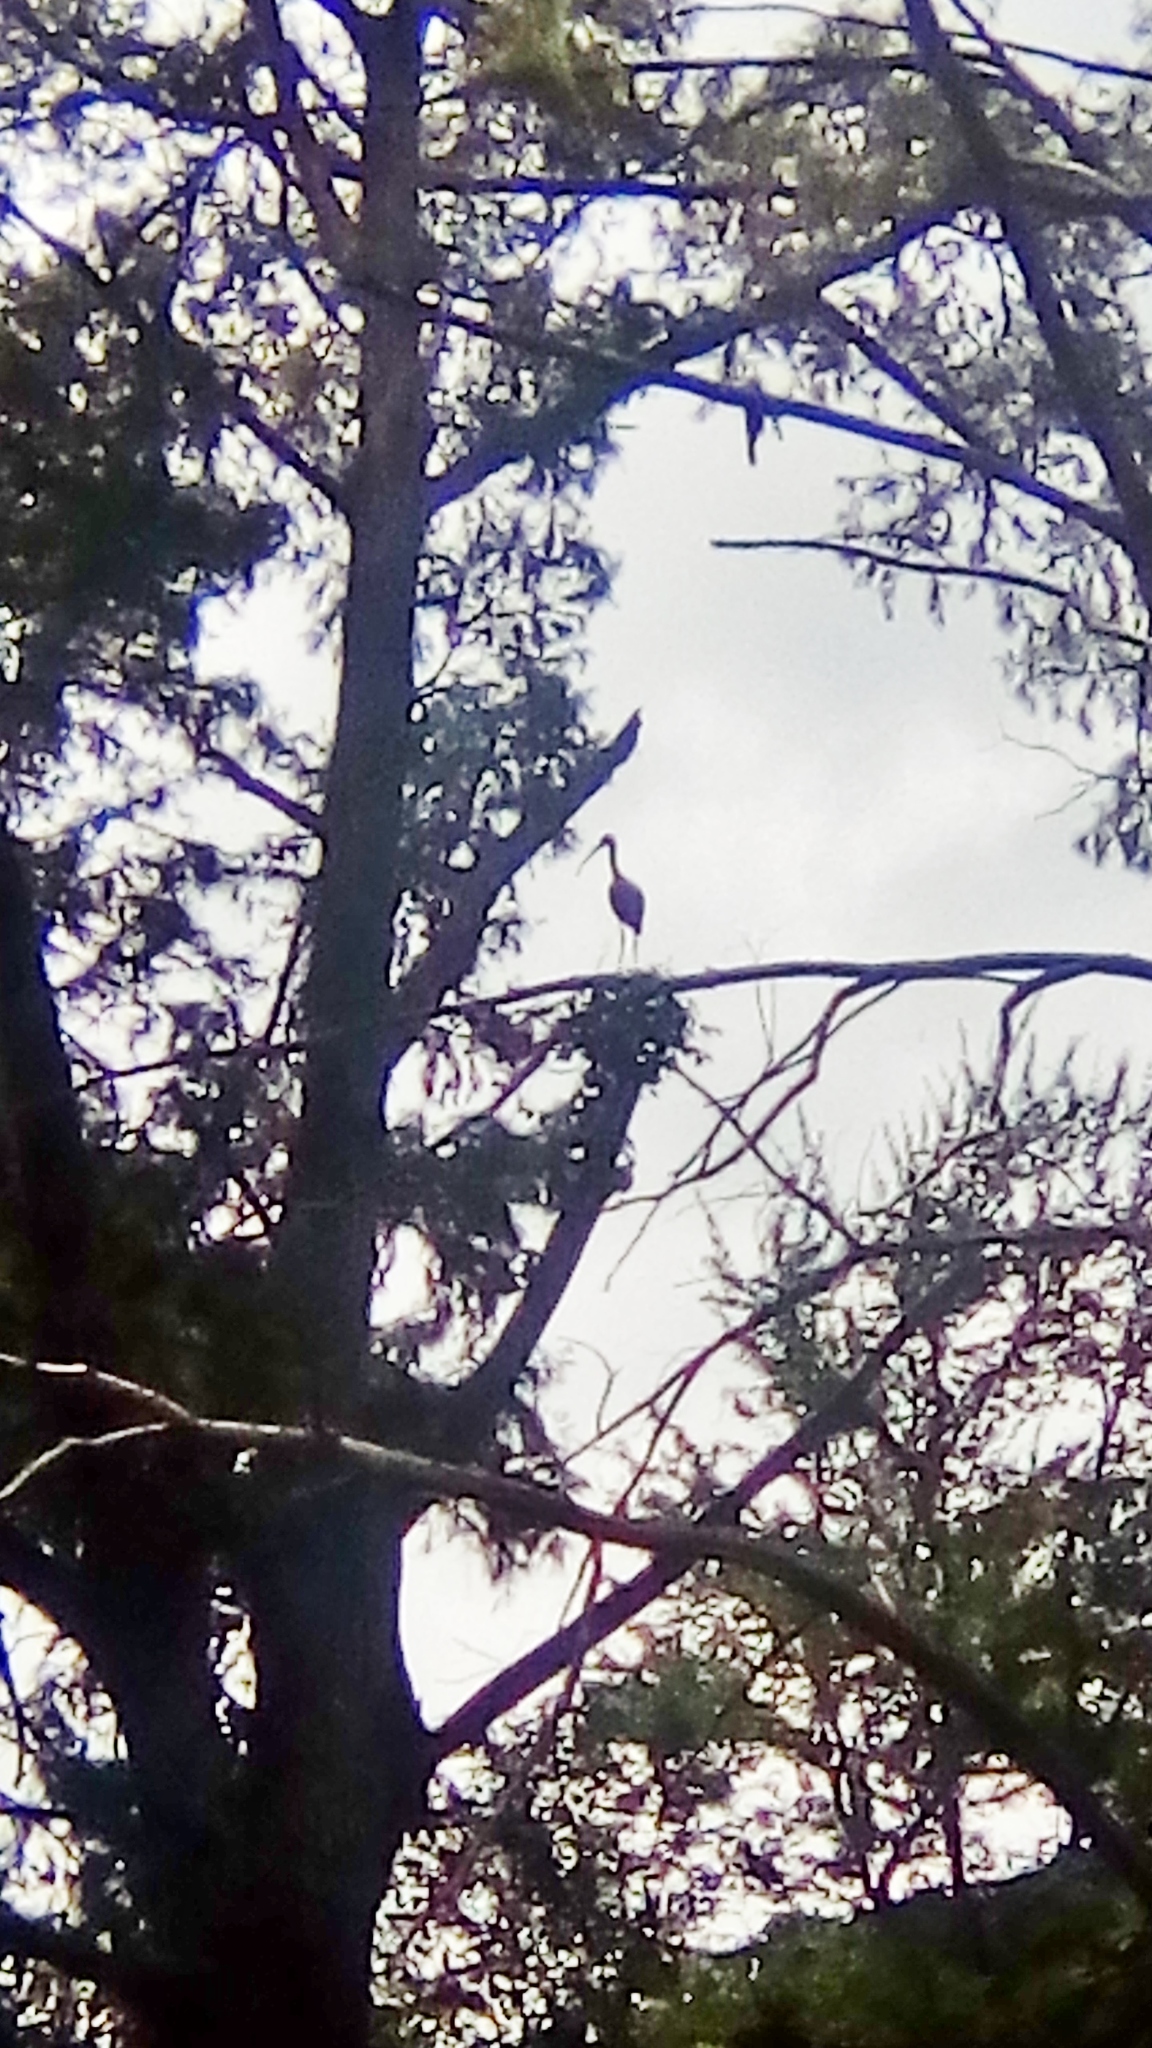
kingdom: Animalia
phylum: Chordata
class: Aves
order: Pelecaniformes
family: Threskiornithidae
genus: Plegadis
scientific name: Plegadis chihi
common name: White-faced ibis
